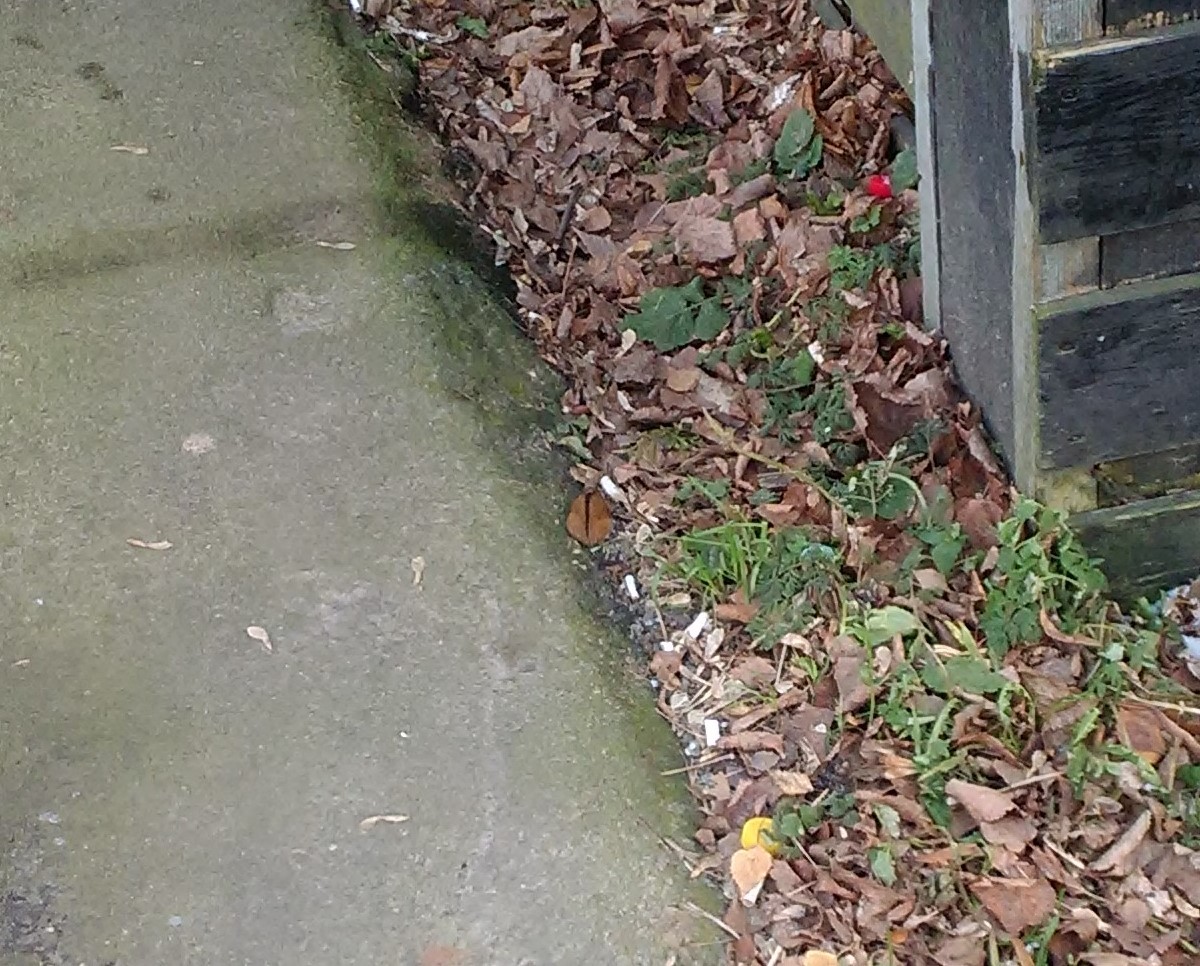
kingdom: Animalia
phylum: Chordata
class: Mammalia
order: Rodentia
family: Muridae
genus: Apodemus
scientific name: Apodemus agrarius
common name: Striped field mouse
